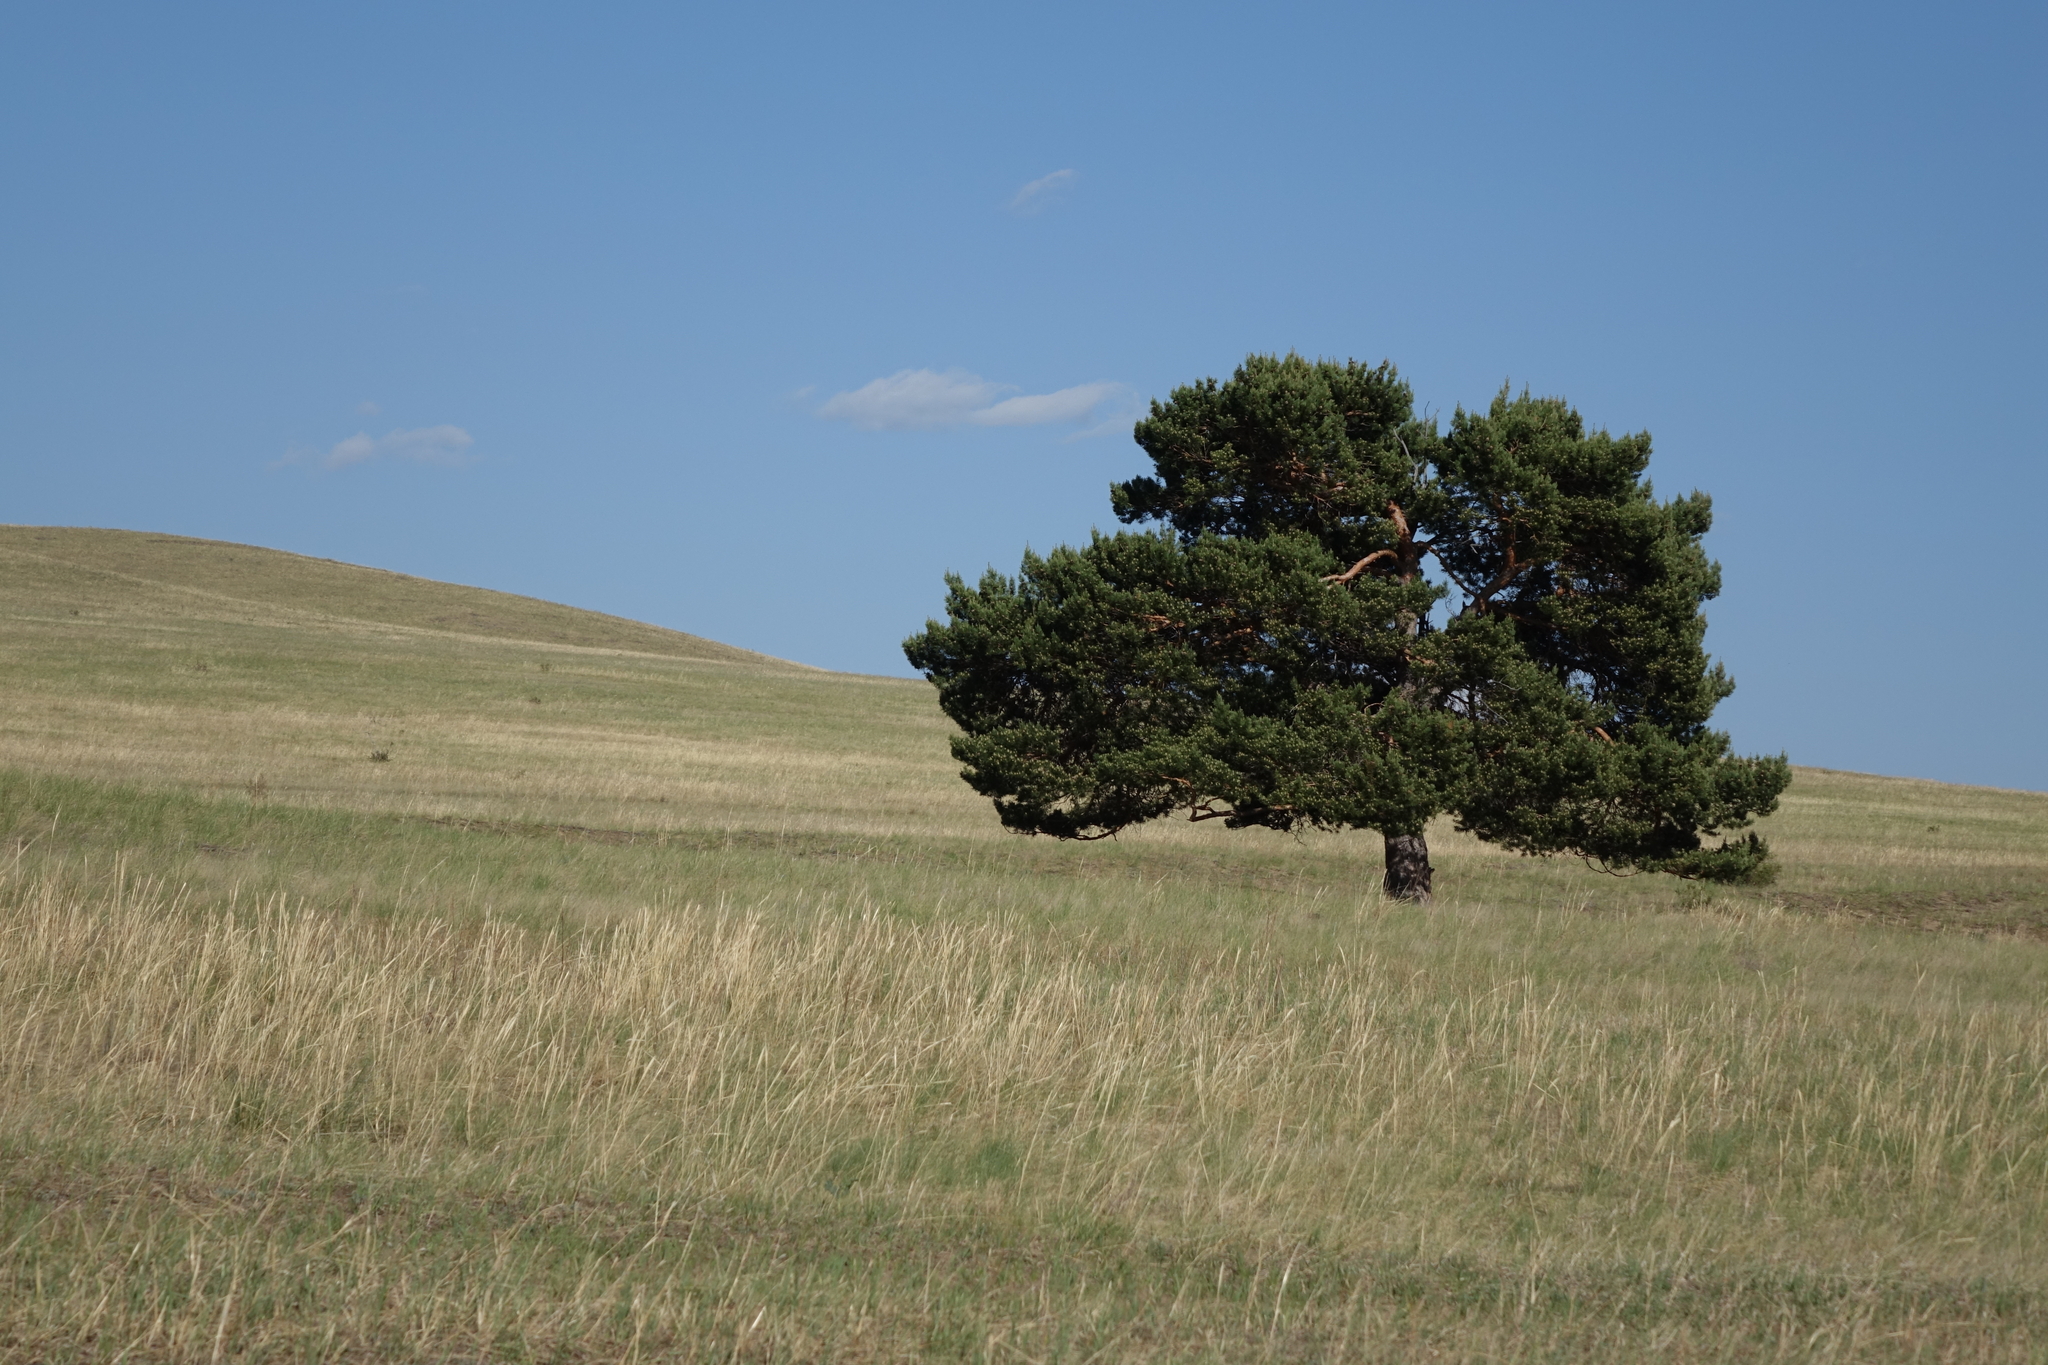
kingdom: Plantae
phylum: Tracheophyta
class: Pinopsida
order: Pinales
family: Pinaceae
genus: Pinus
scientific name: Pinus sylvestris
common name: Scots pine
